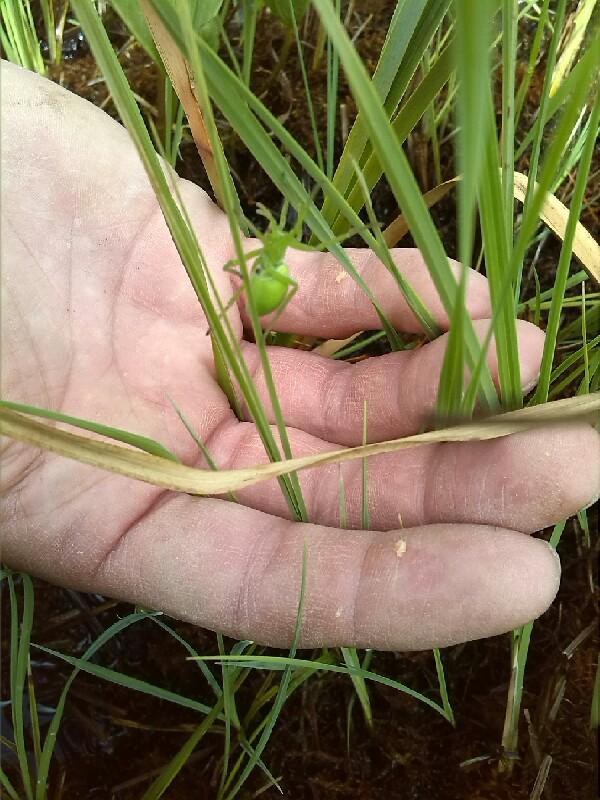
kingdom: Animalia
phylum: Arthropoda
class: Arachnida
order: Araneae
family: Sparassidae
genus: Micrommata
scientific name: Micrommata virescens
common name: Green spider
